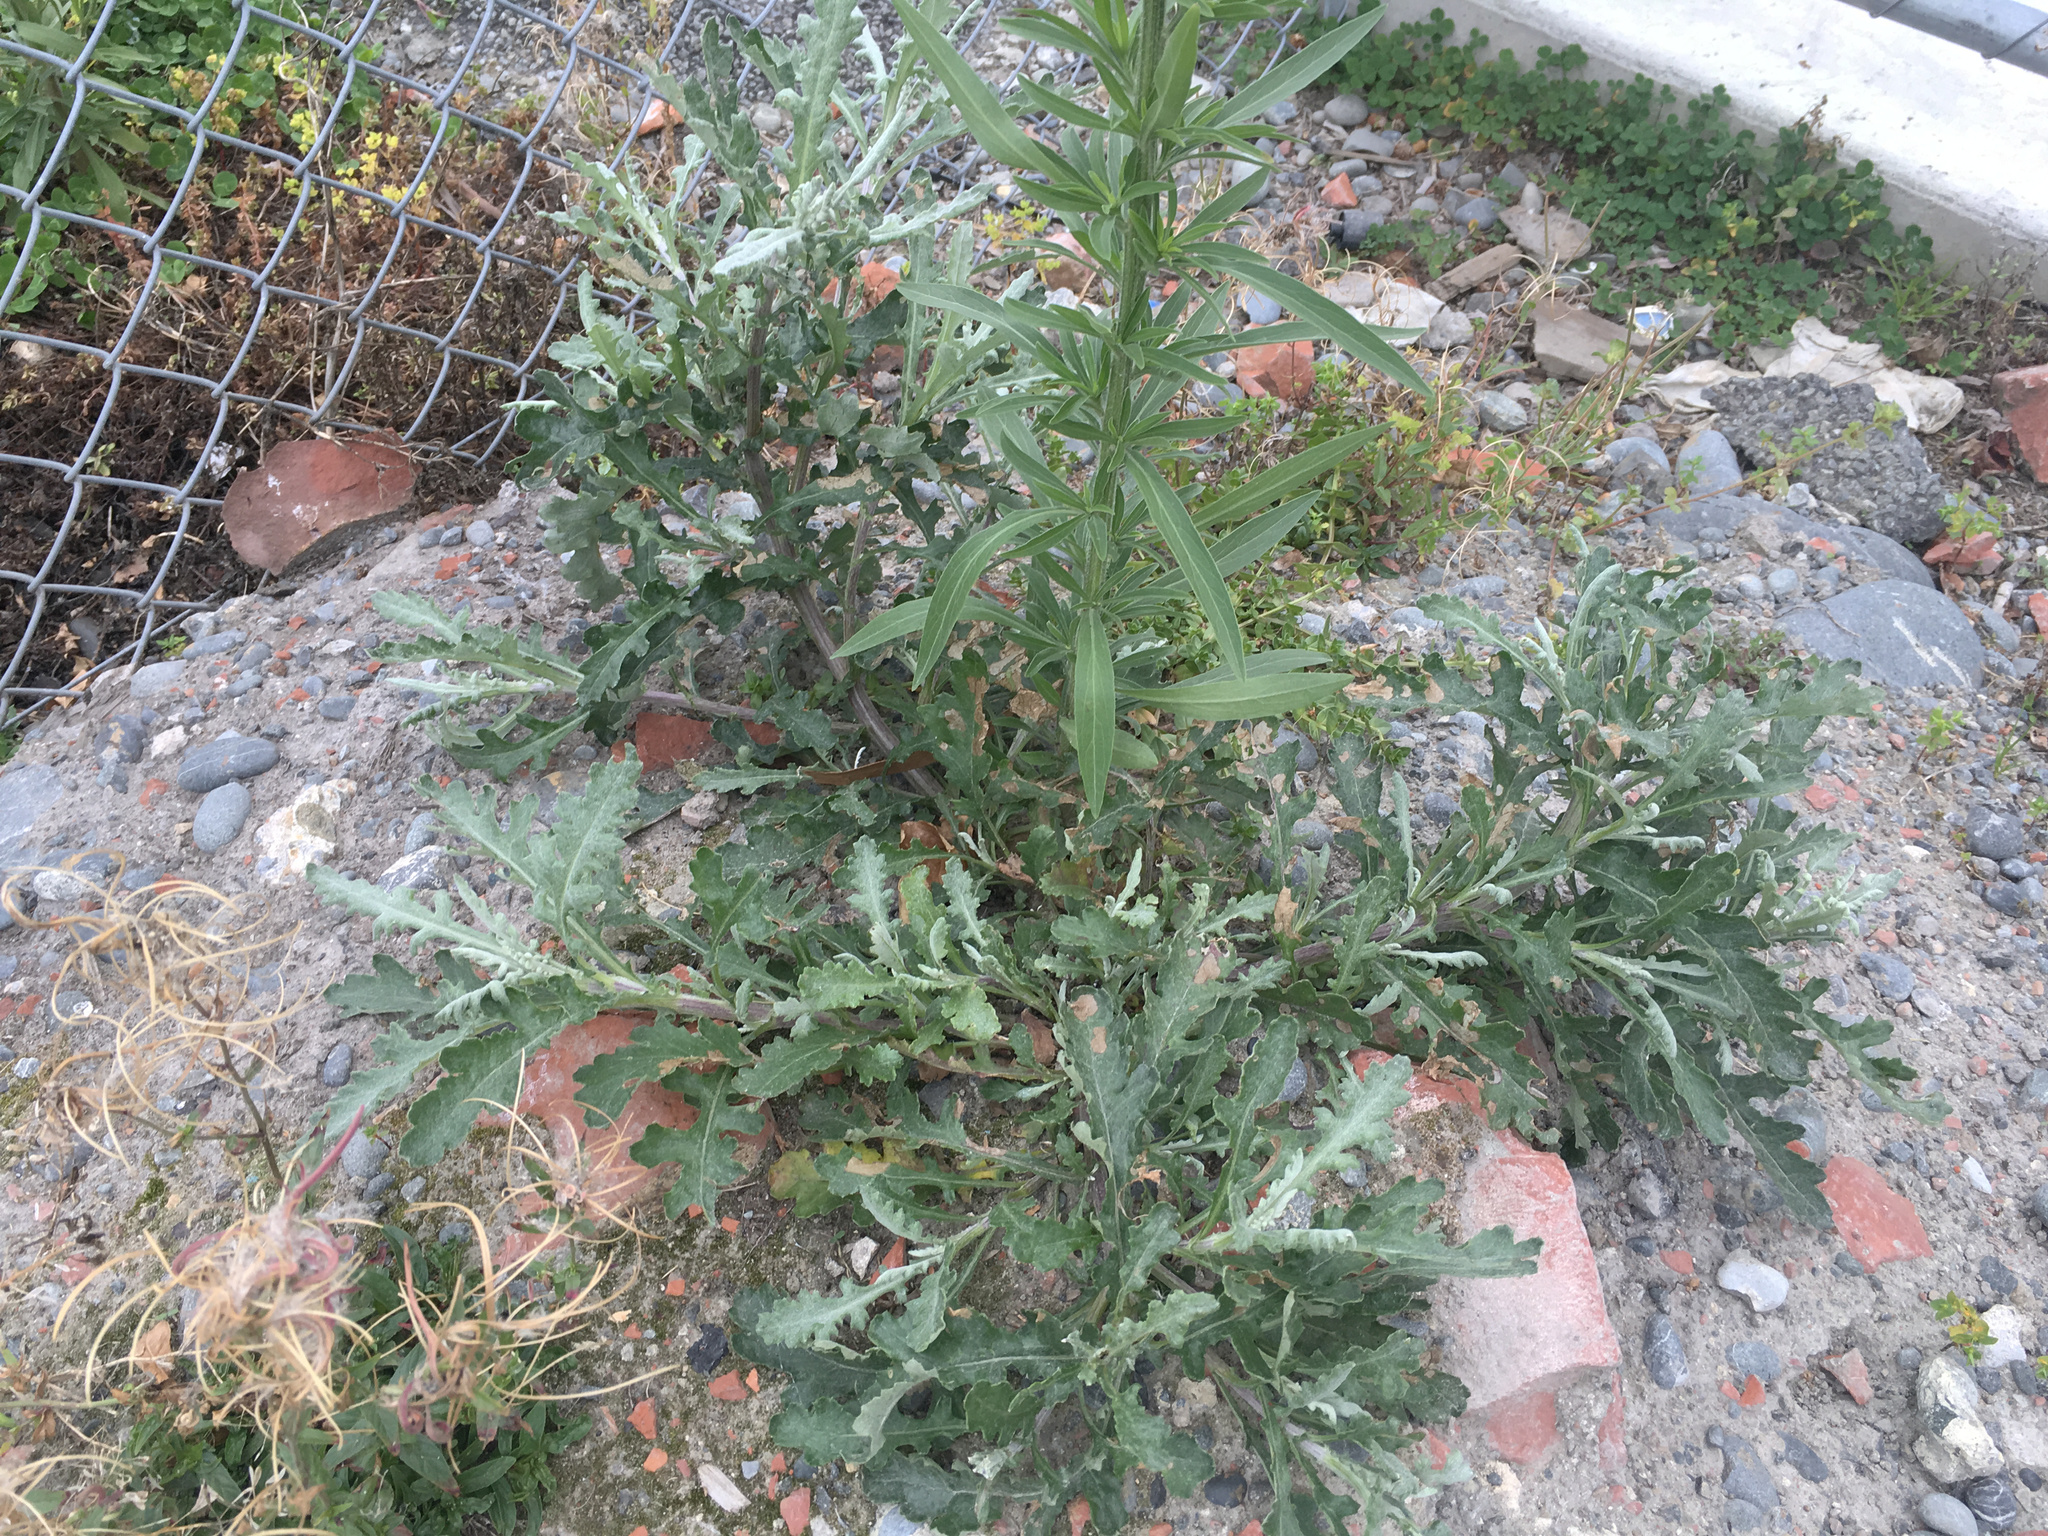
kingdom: Plantae
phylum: Tracheophyta
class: Magnoliopsida
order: Asterales
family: Asteraceae
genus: Senecio
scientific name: Senecio glomeratus
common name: Cutleaf burnweed
